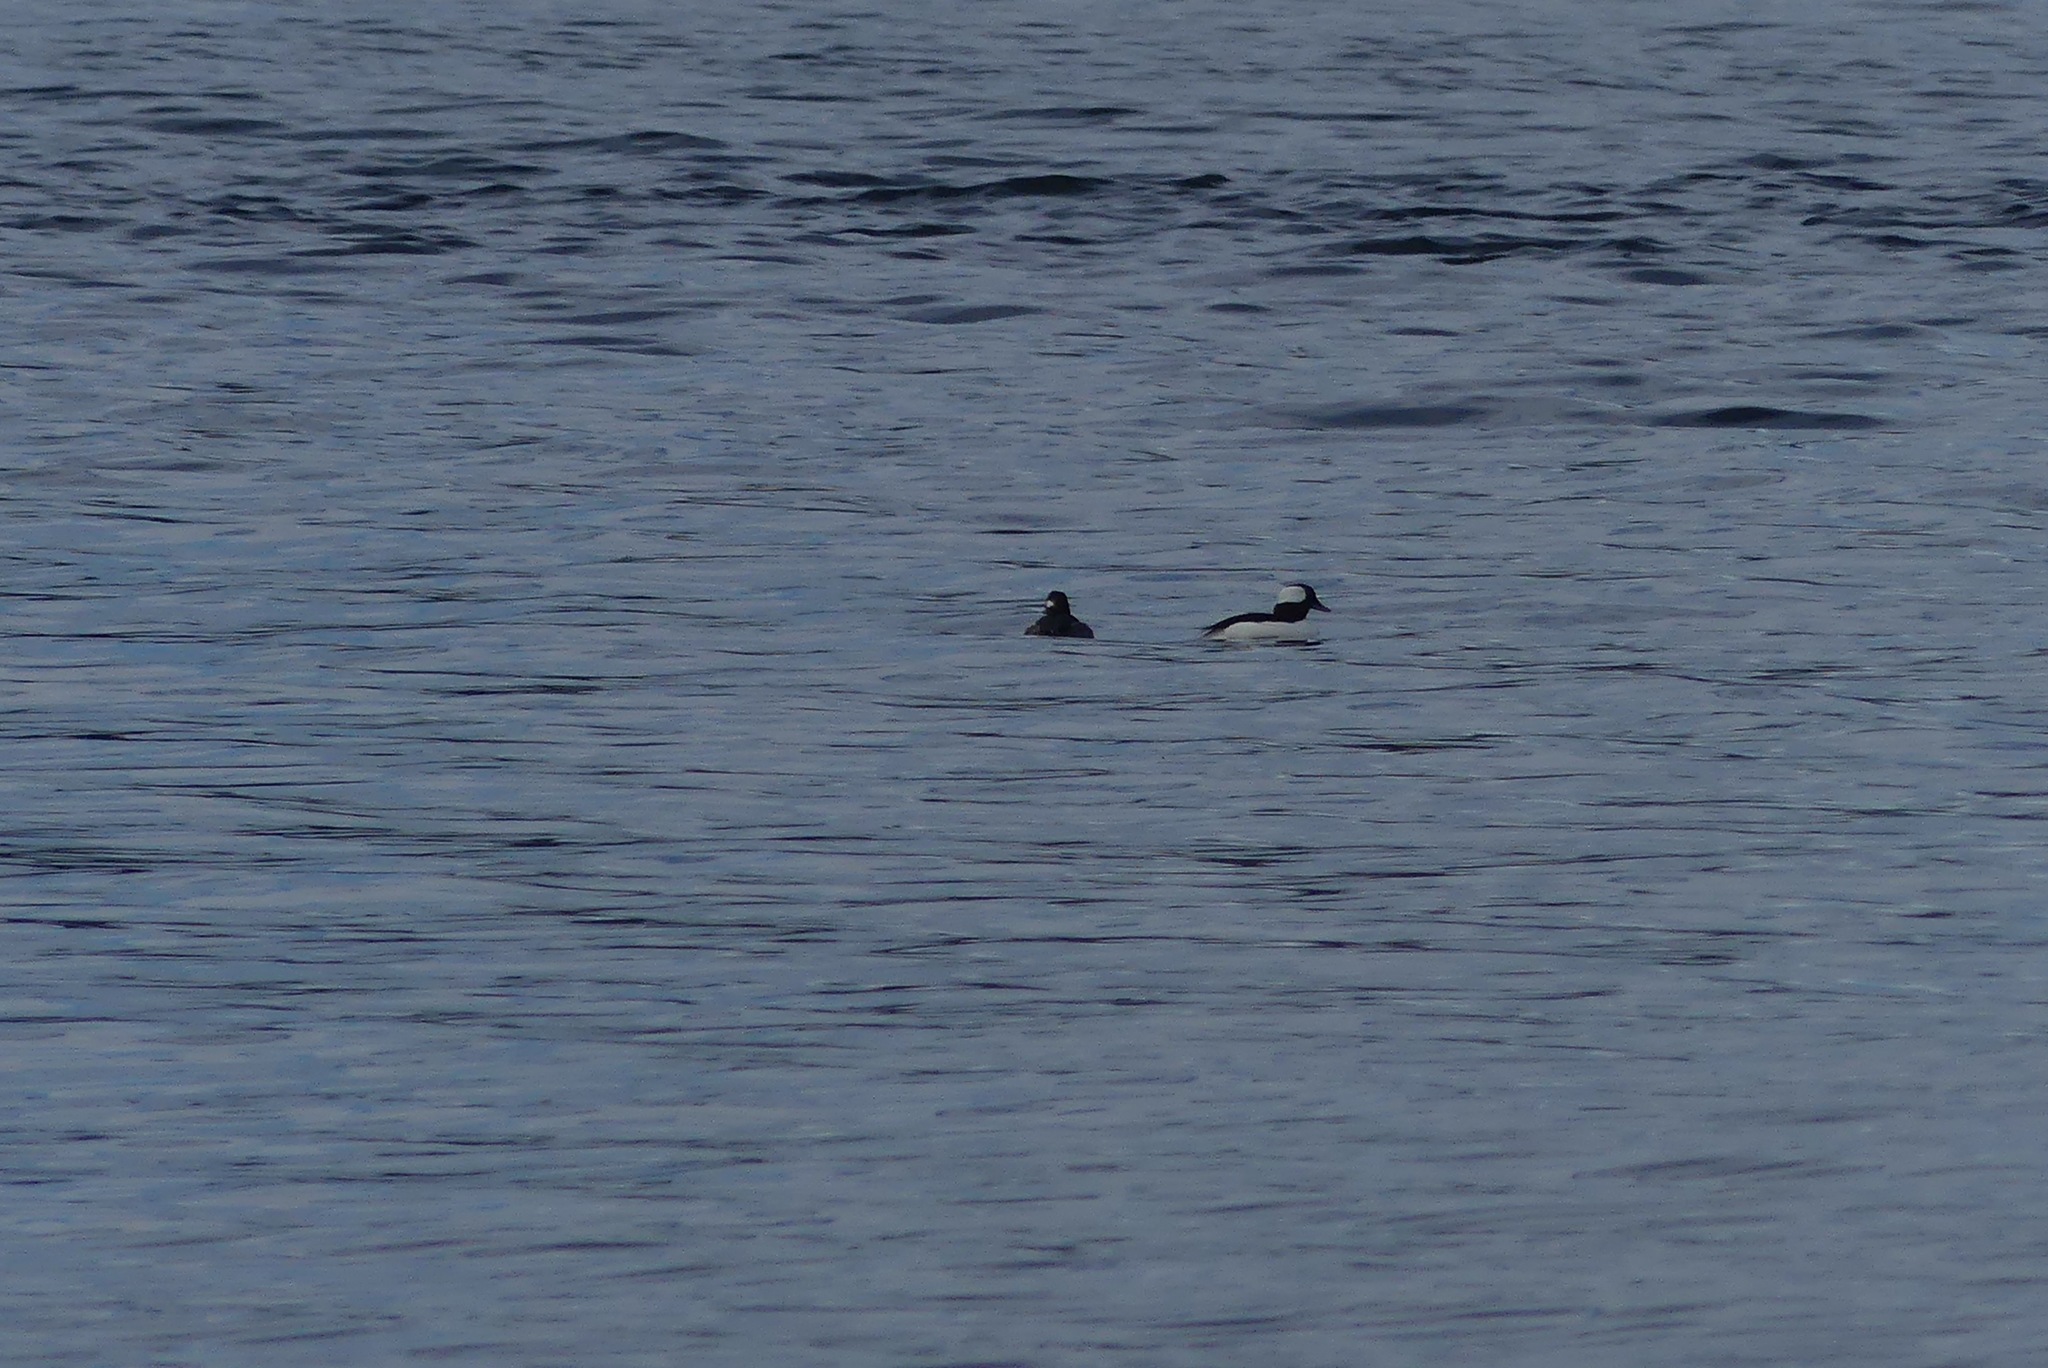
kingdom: Animalia
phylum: Chordata
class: Aves
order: Anseriformes
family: Anatidae
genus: Bucephala
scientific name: Bucephala albeola
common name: Bufflehead
